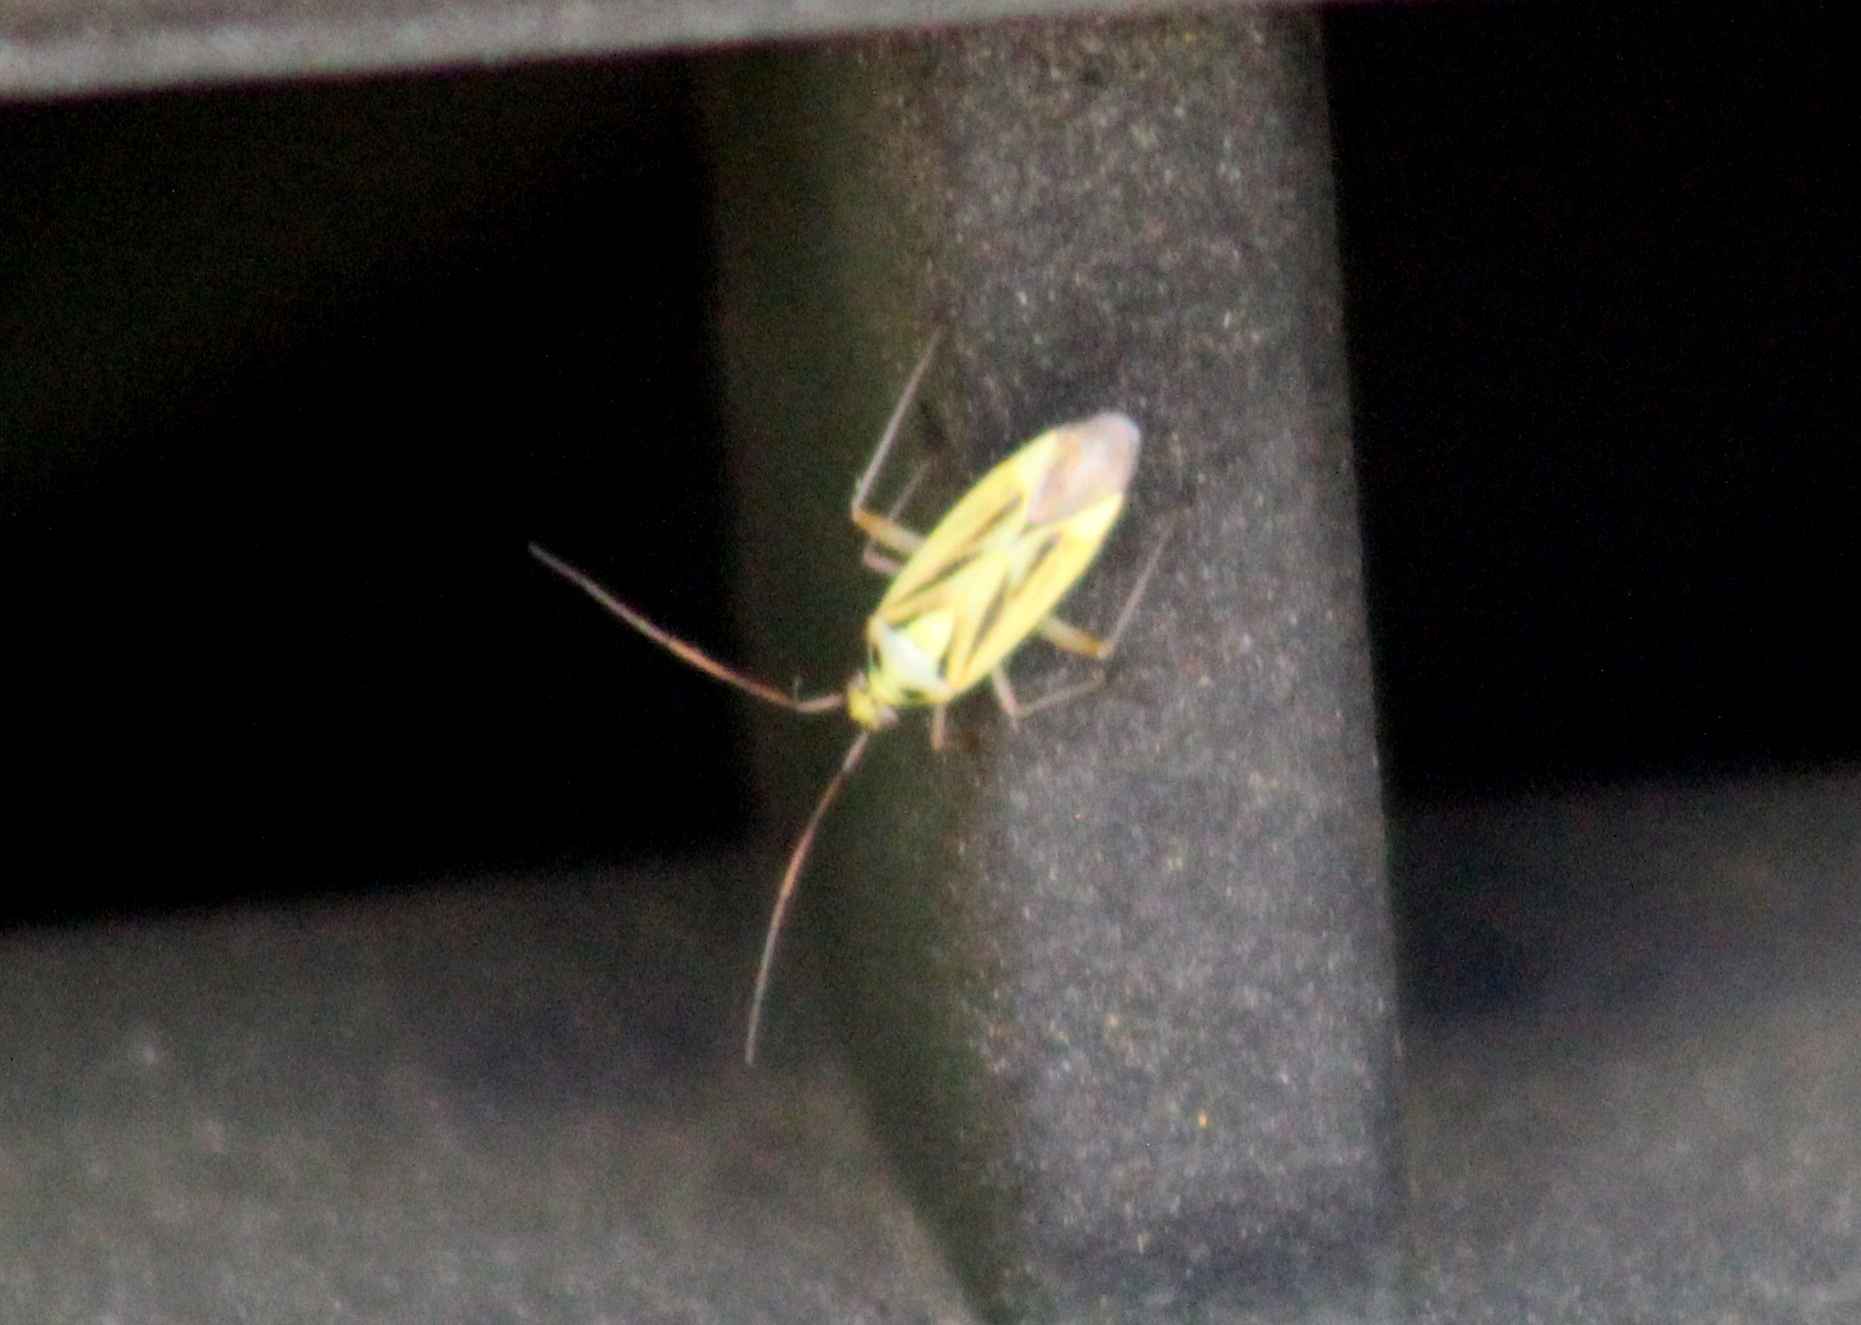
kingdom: Animalia
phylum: Arthropoda
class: Insecta
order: Hemiptera
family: Miridae
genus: Stenotus
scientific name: Stenotus binotatus
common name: Plant bug
